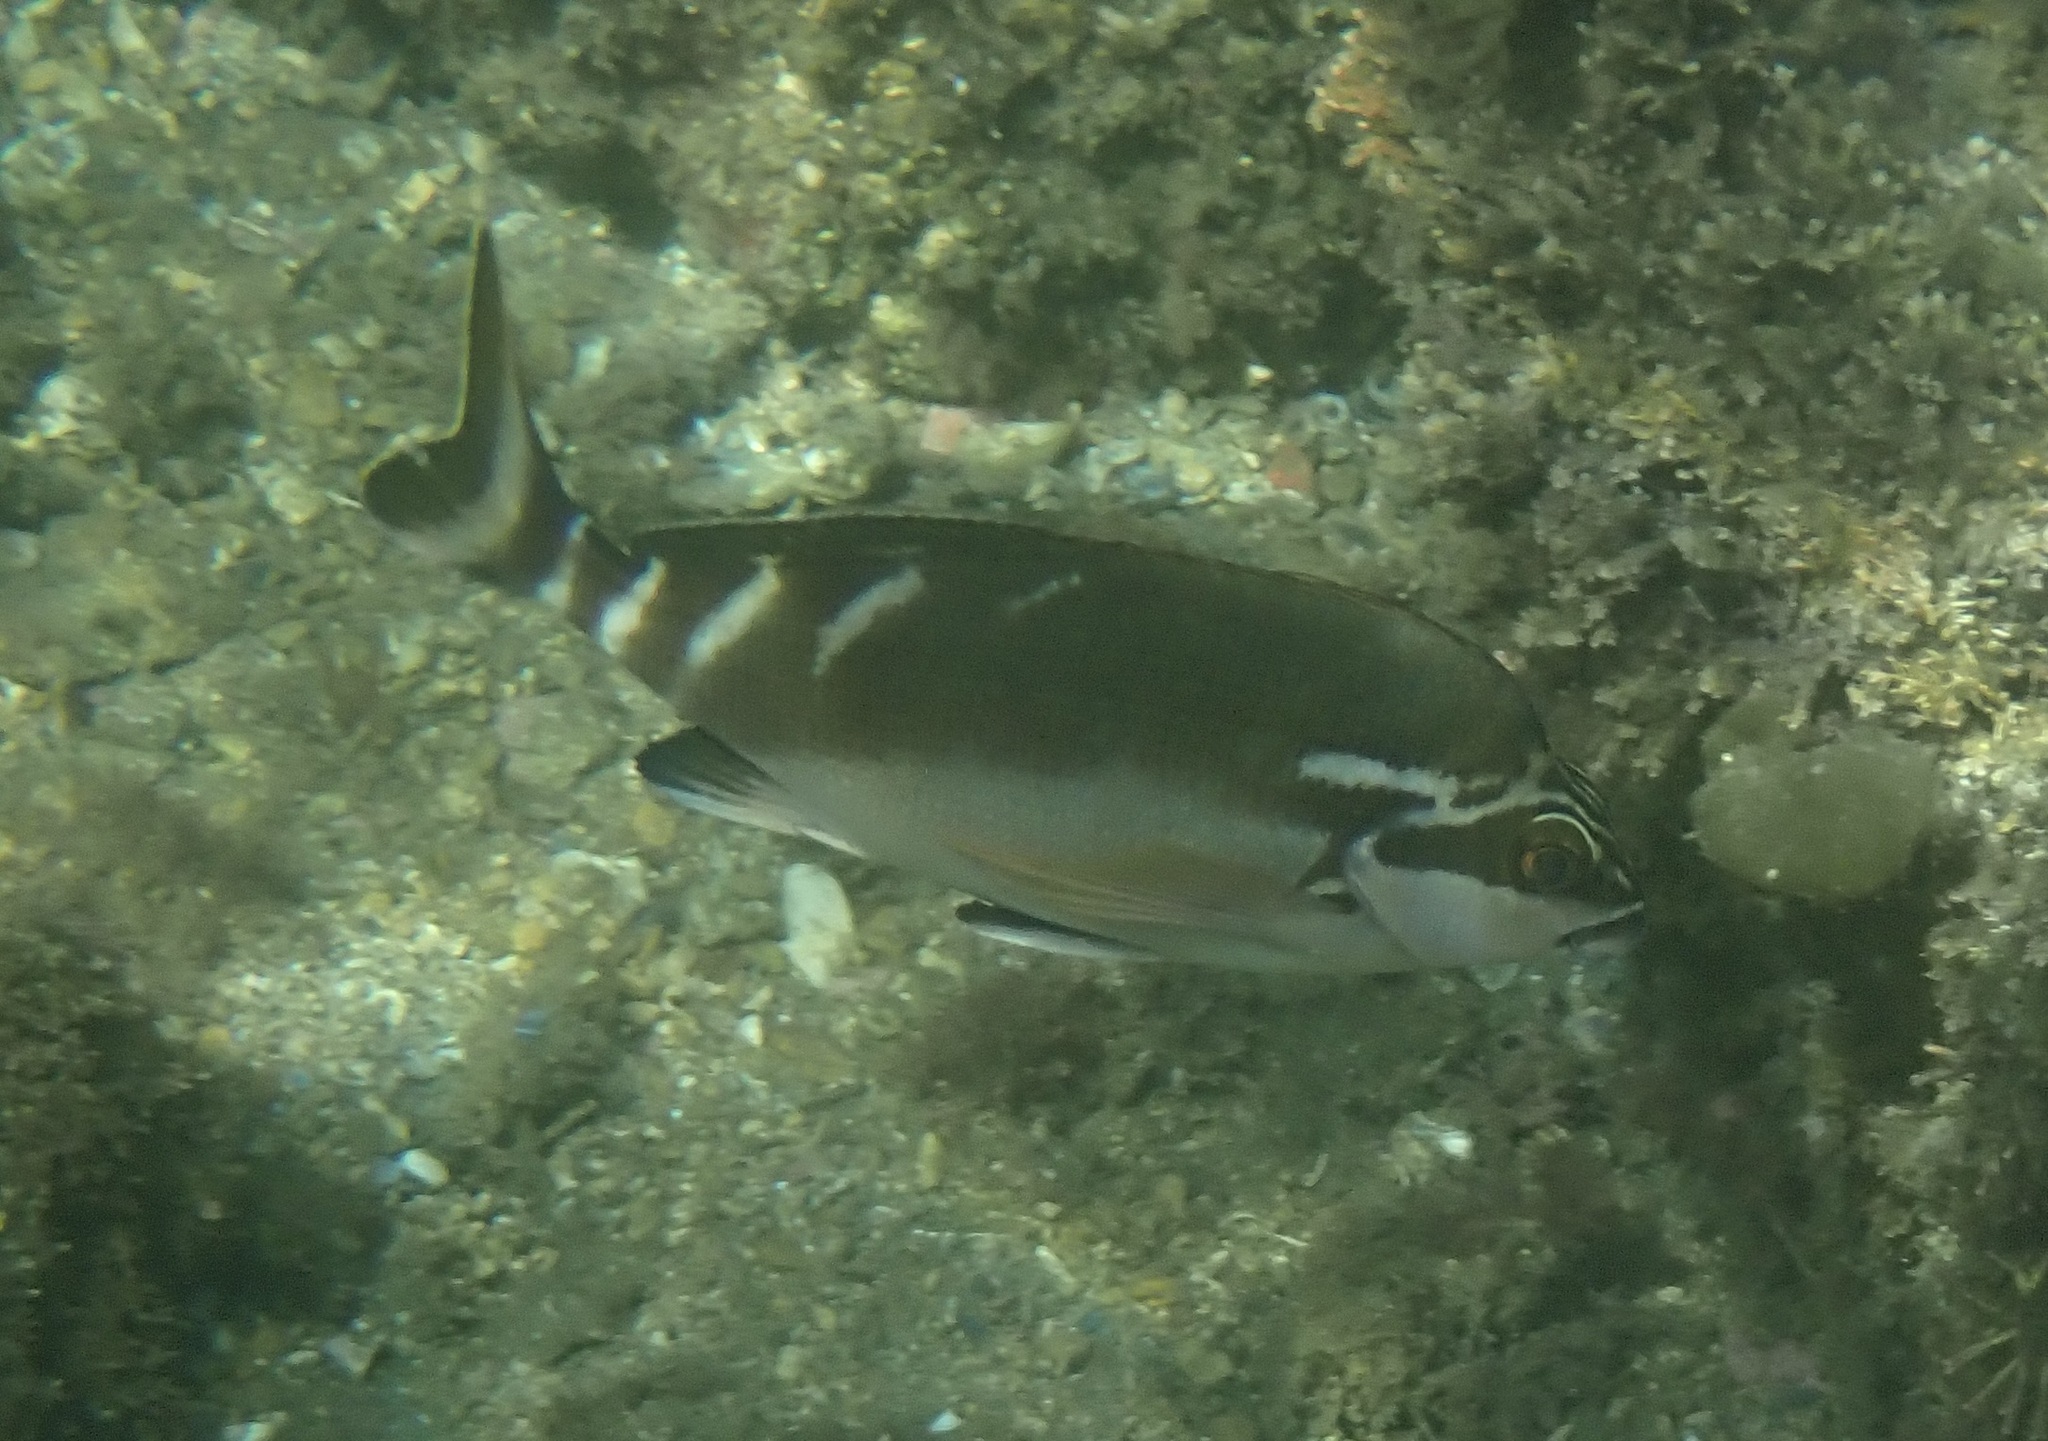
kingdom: Animalia
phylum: Chordata
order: Perciformes
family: Latridae
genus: Morwong
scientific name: Morwong fuscus
